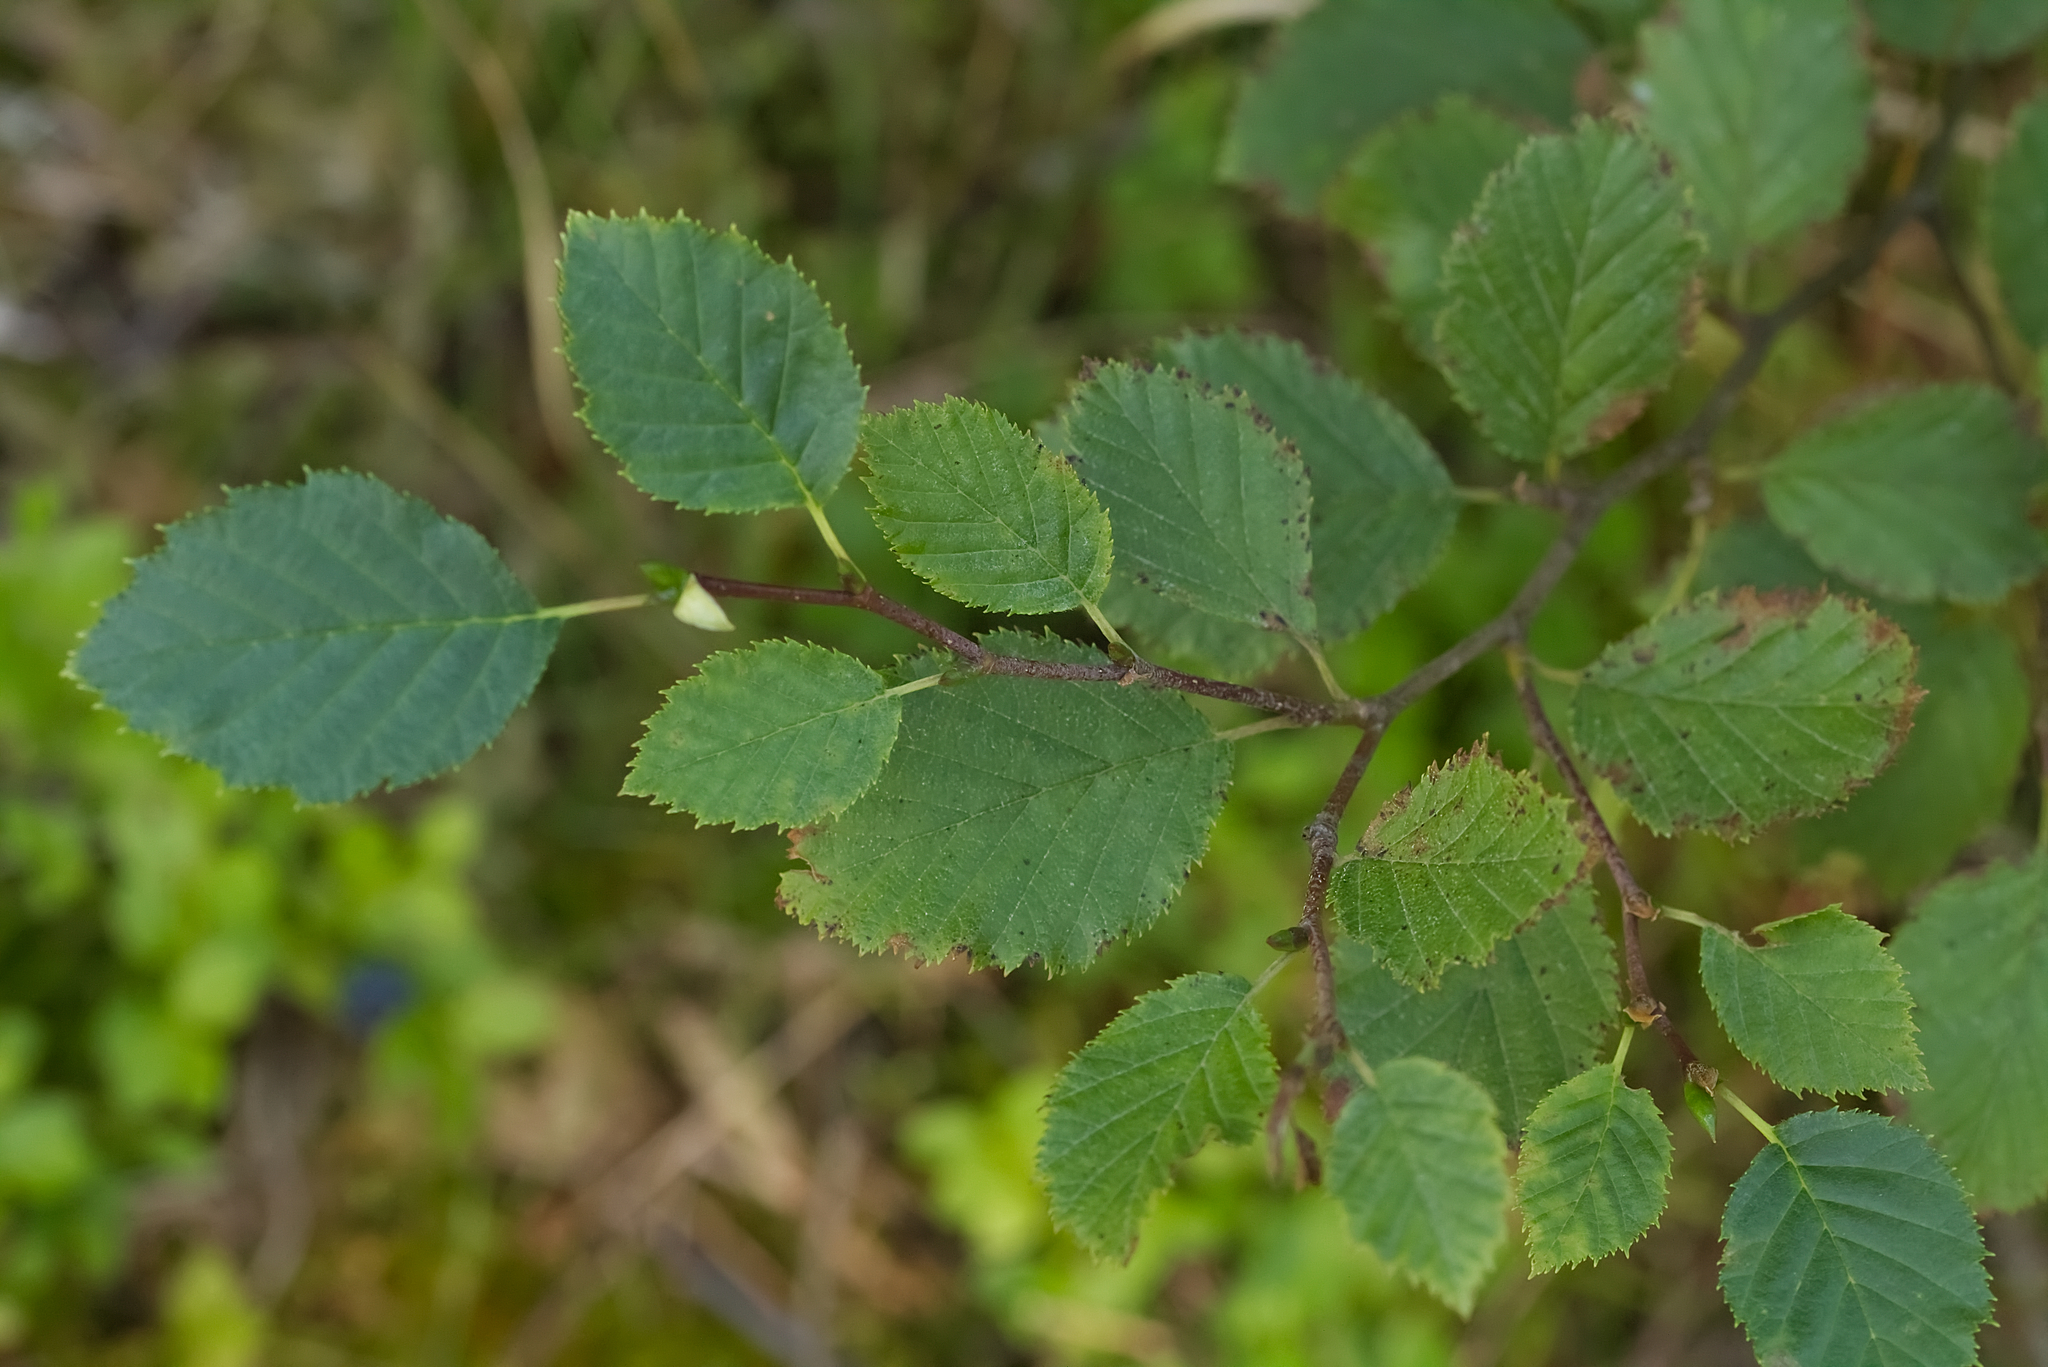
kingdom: Plantae
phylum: Tracheophyta
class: Magnoliopsida
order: Fagales
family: Betulaceae
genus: Alnus
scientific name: Alnus alnobetula
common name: Green alder
